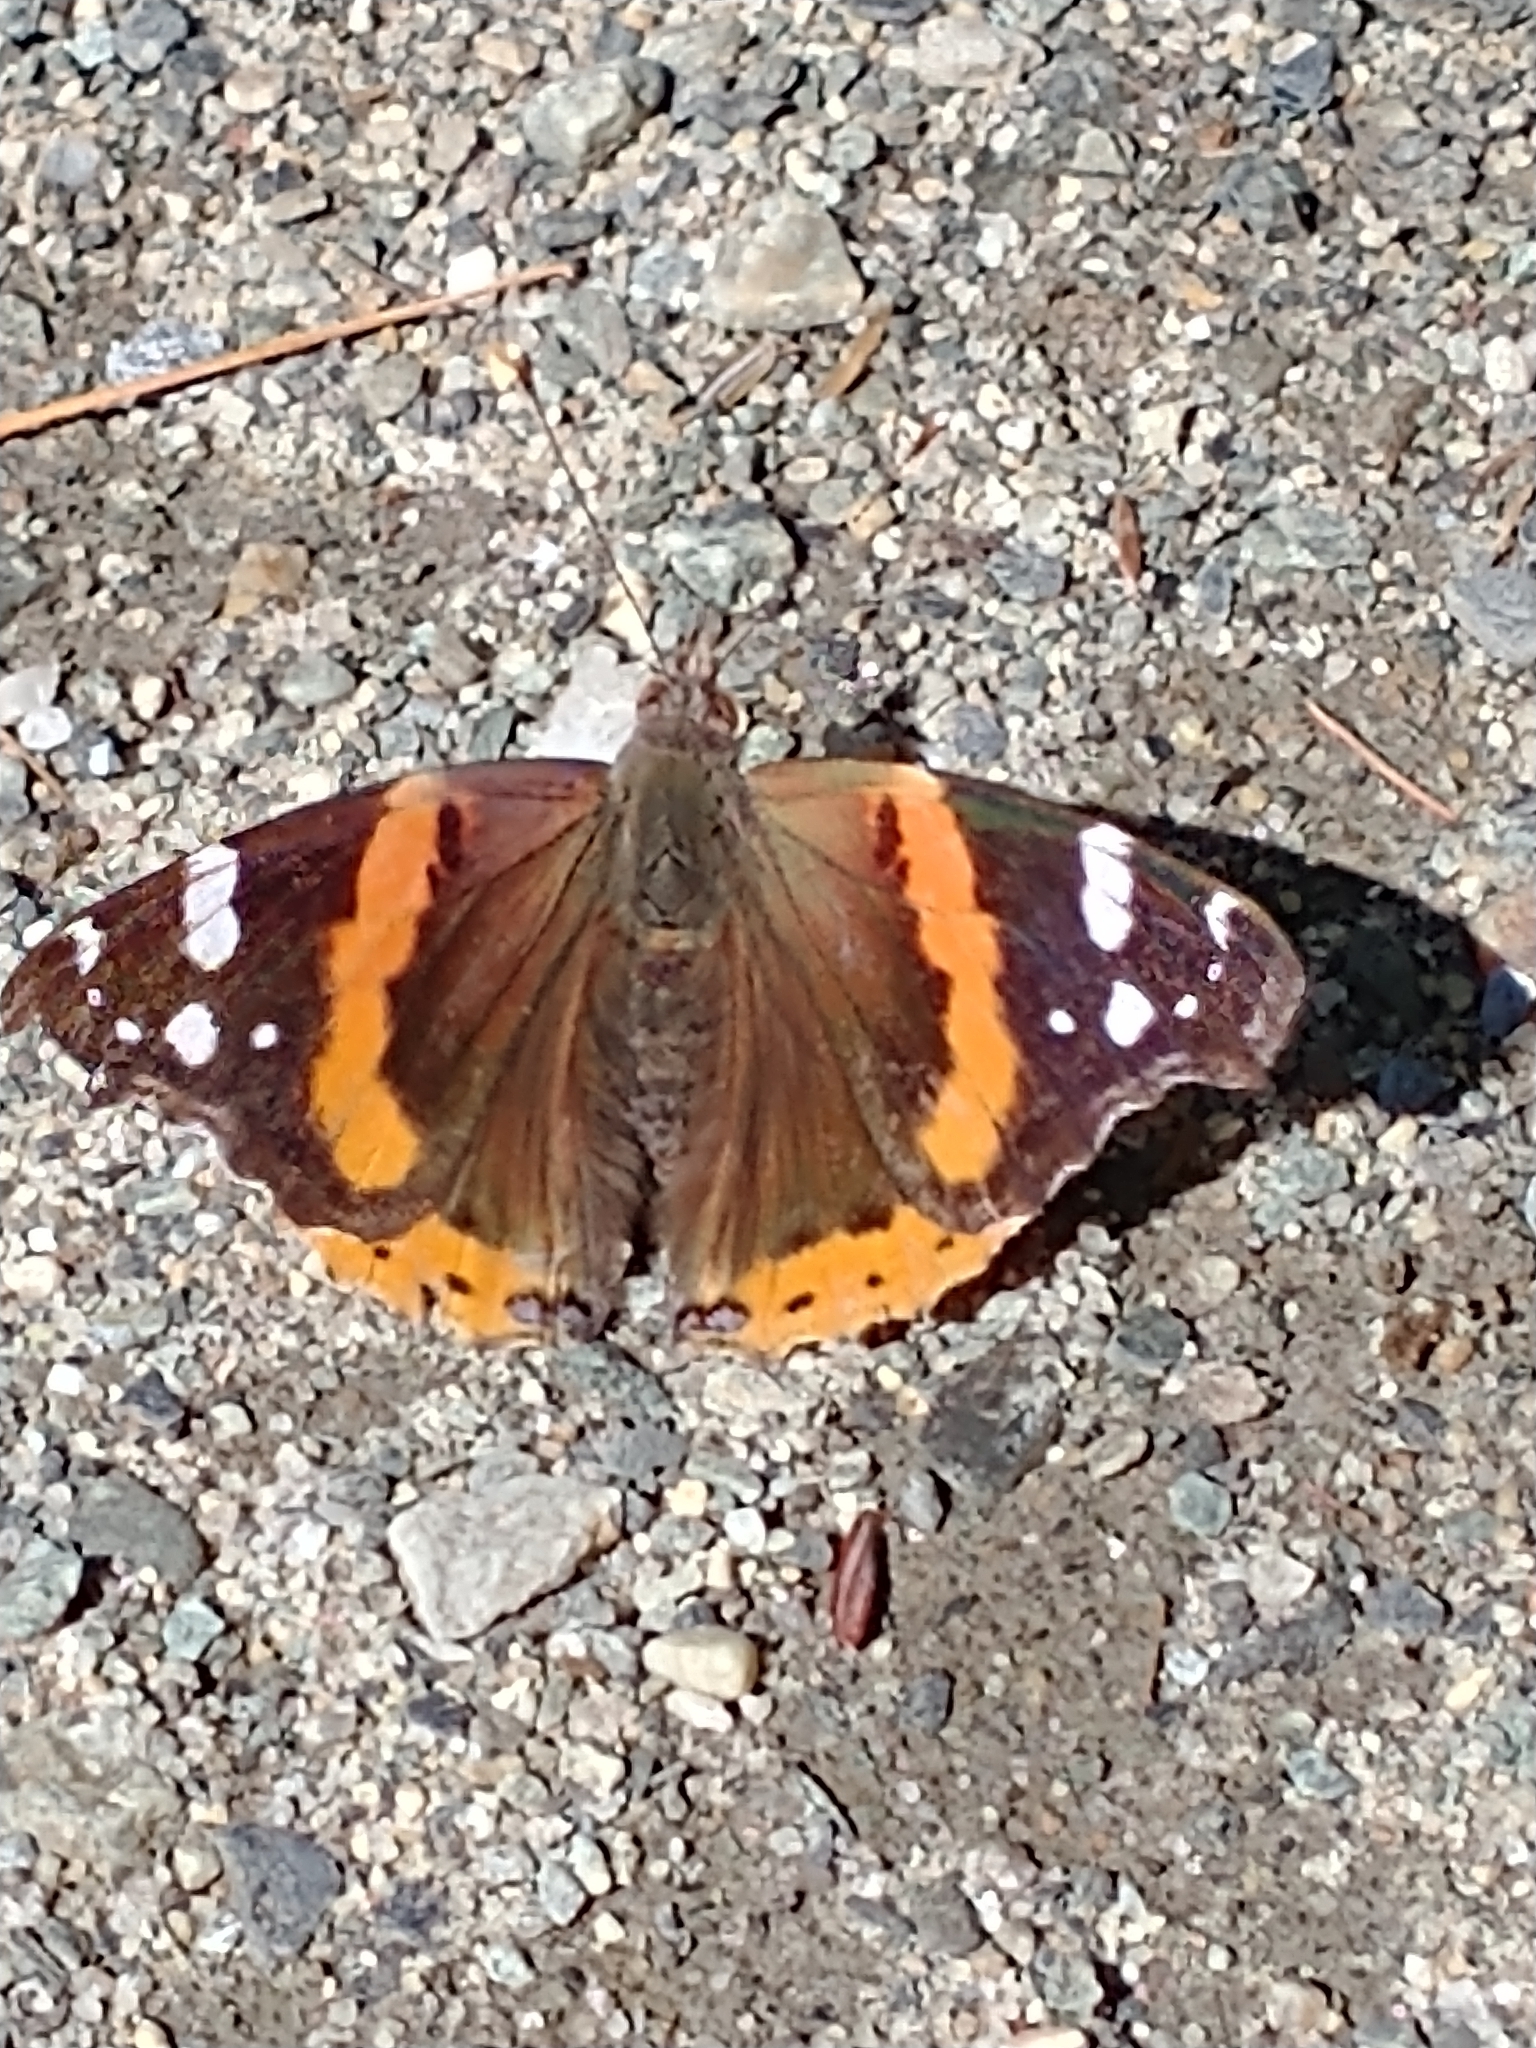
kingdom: Animalia
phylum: Arthropoda
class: Insecta
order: Lepidoptera
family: Nymphalidae
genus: Vanessa
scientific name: Vanessa atalanta
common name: Red admiral
